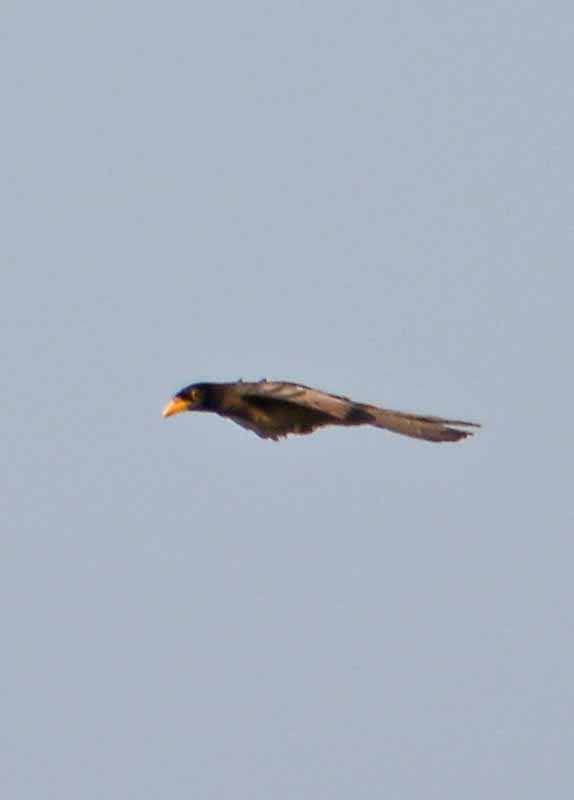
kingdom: Animalia
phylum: Chordata
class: Aves
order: Passeriformes
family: Corvidae
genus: Psilorhinus
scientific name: Psilorhinus morio
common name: Brown jay
